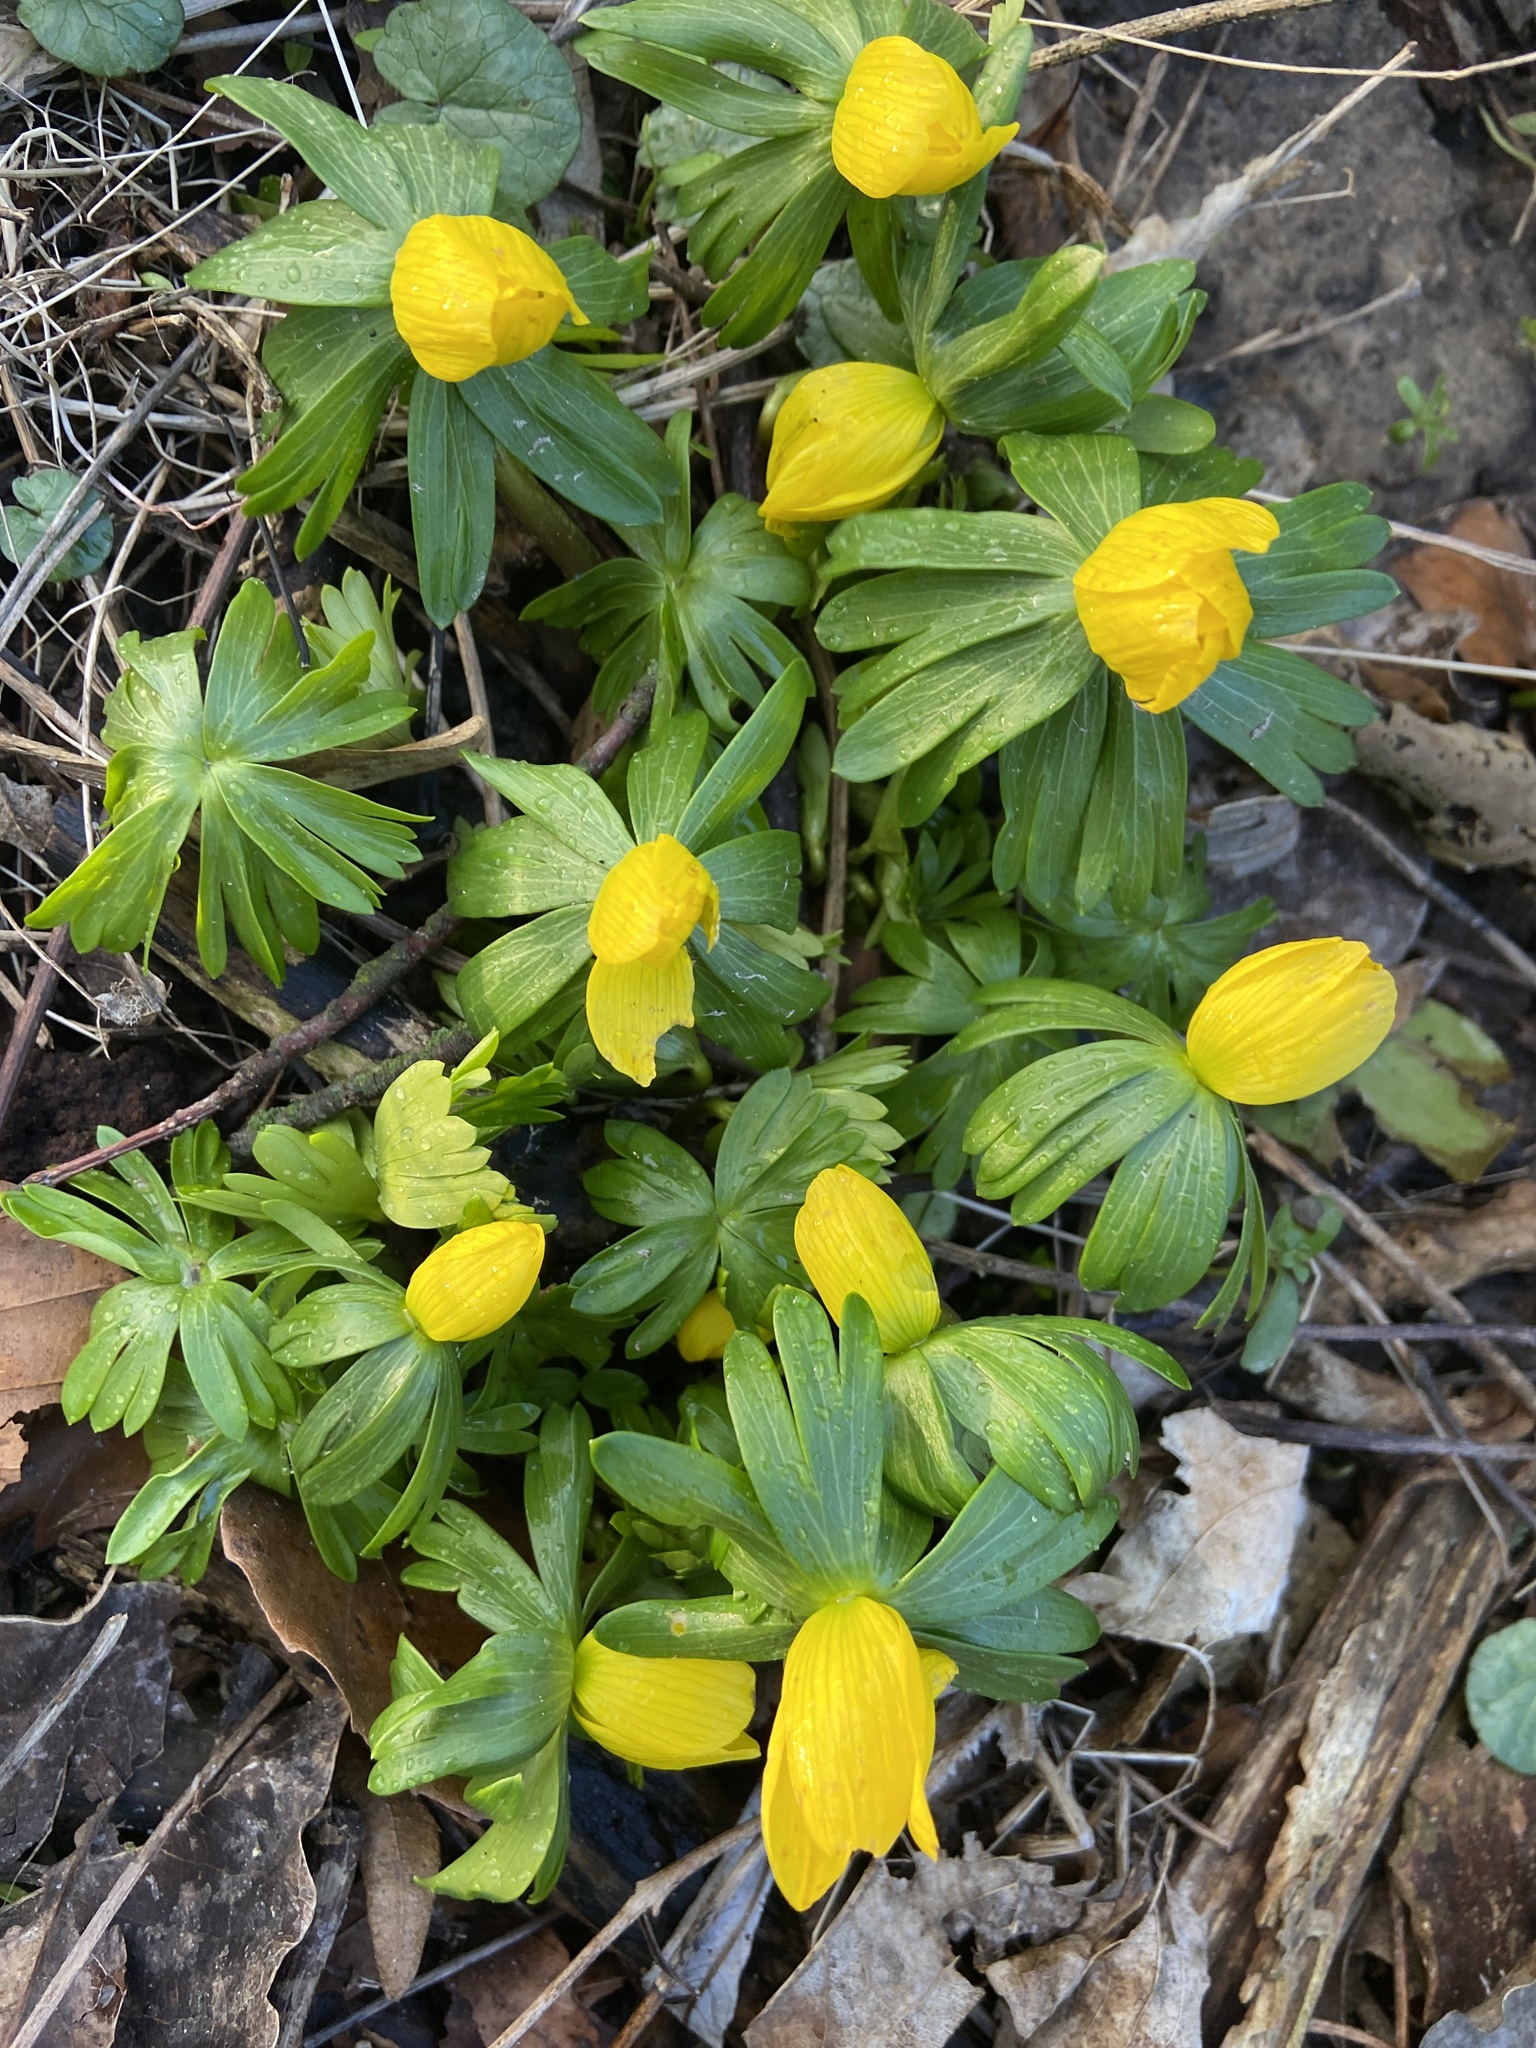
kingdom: Plantae
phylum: Tracheophyta
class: Magnoliopsida
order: Ranunculales
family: Ranunculaceae
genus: Eranthis
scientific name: Eranthis hyemalis
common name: Winter aconite
